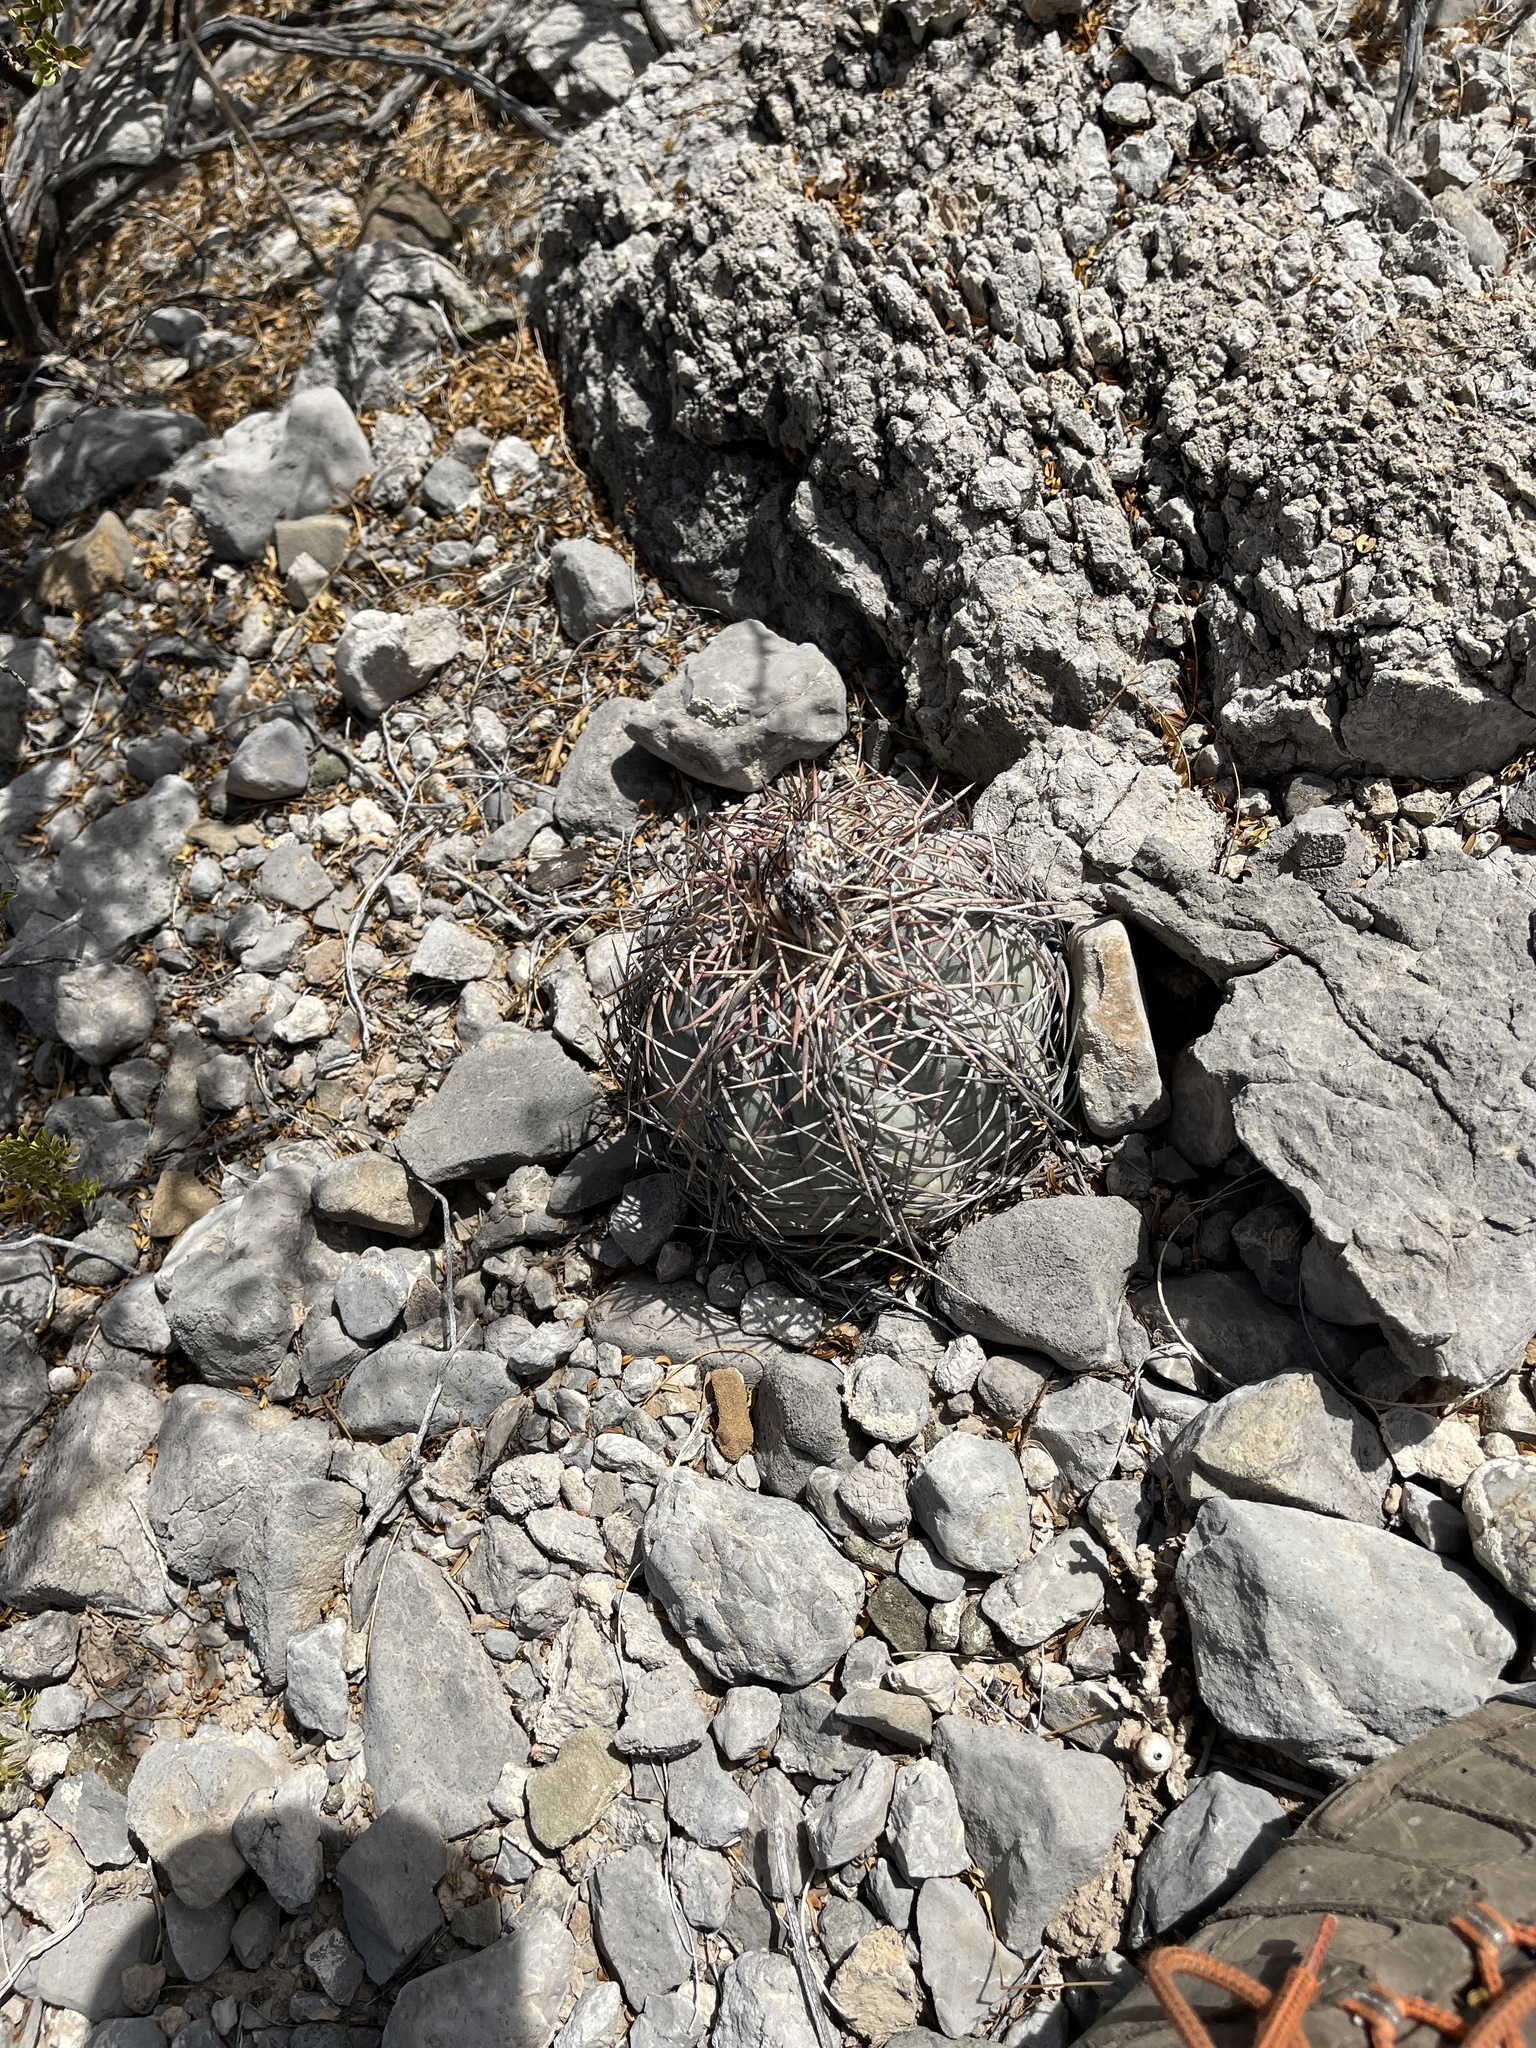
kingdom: Plantae
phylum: Tracheophyta
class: Magnoliopsida
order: Caryophyllales
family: Cactaceae
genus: Echinocactus
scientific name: Echinocactus horizonthalonius
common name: Devilshead
